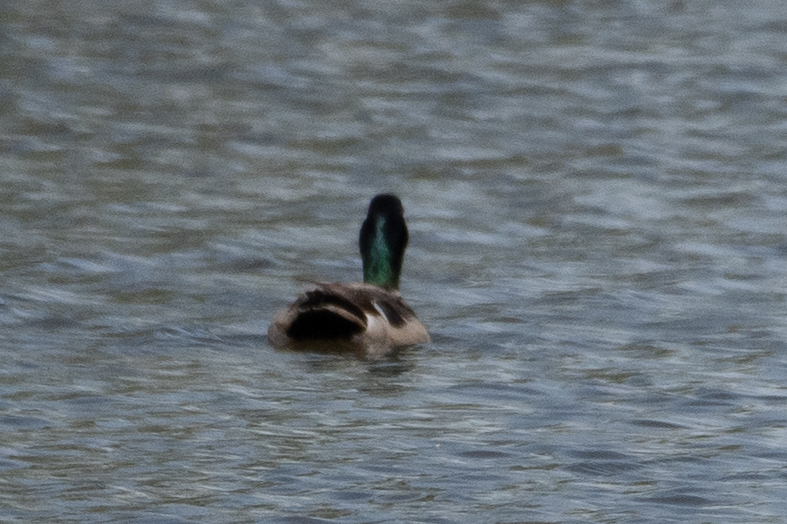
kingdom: Animalia
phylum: Chordata
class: Aves
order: Anseriformes
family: Anatidae
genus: Anas
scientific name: Anas platyrhynchos
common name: Mallard
